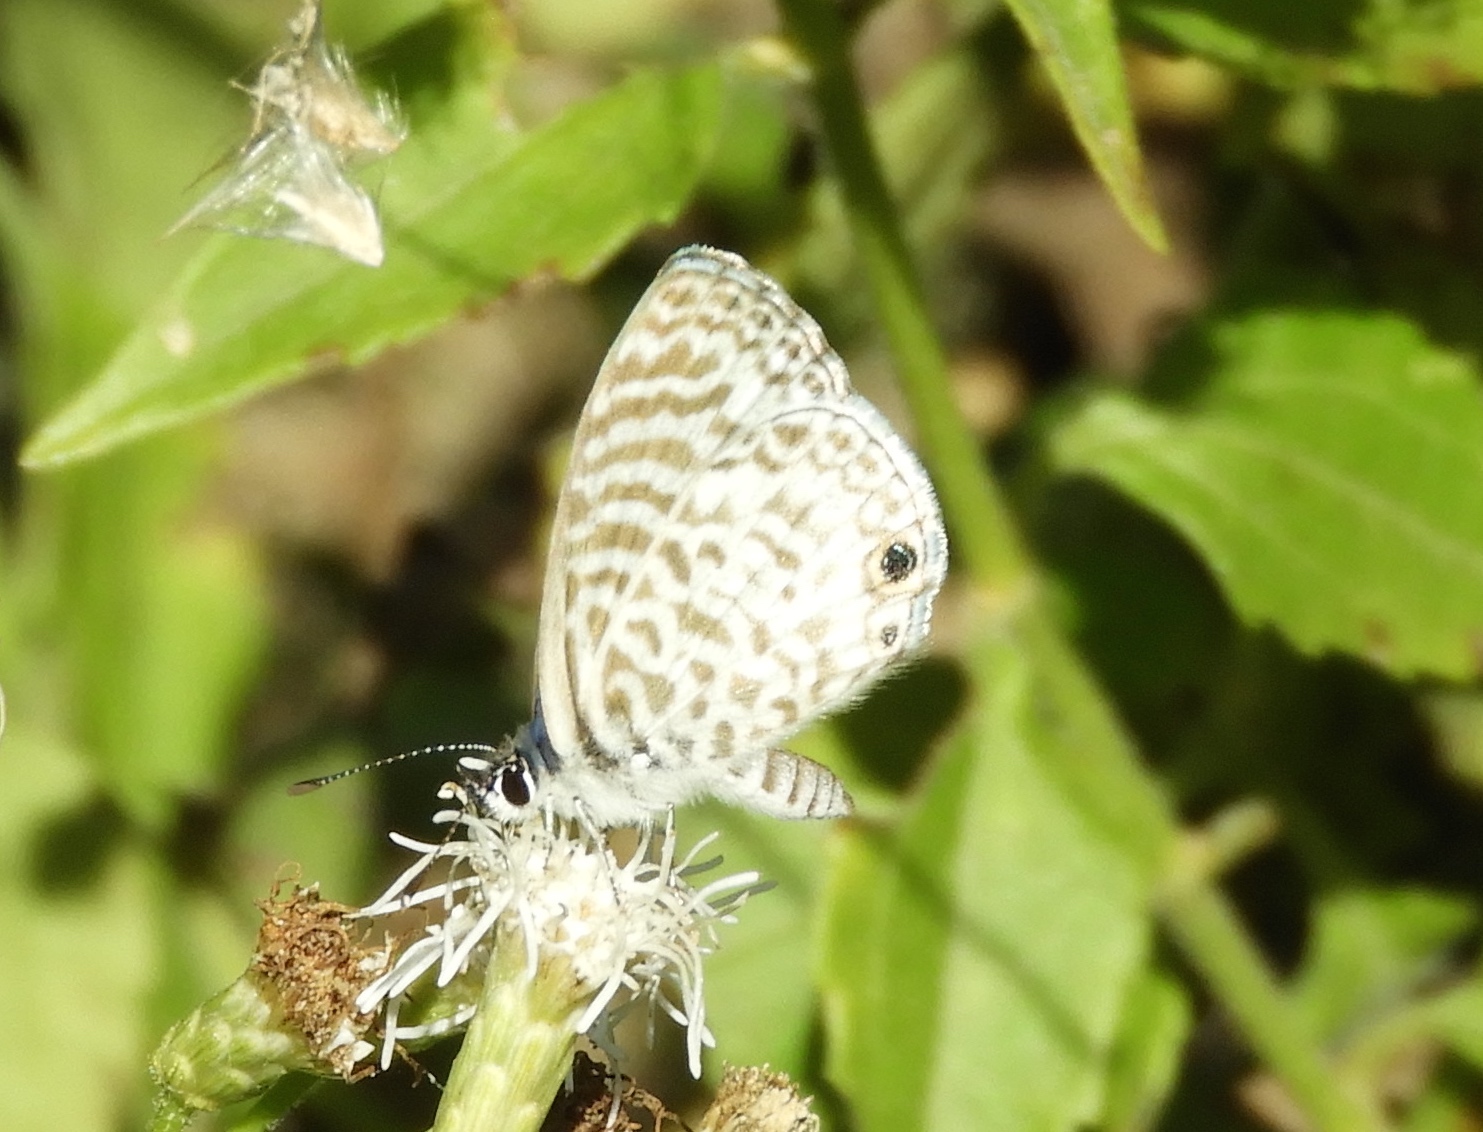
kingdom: Animalia
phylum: Arthropoda
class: Insecta
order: Lepidoptera
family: Lycaenidae
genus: Leptotes
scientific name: Leptotes cassius
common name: Cassius blue
